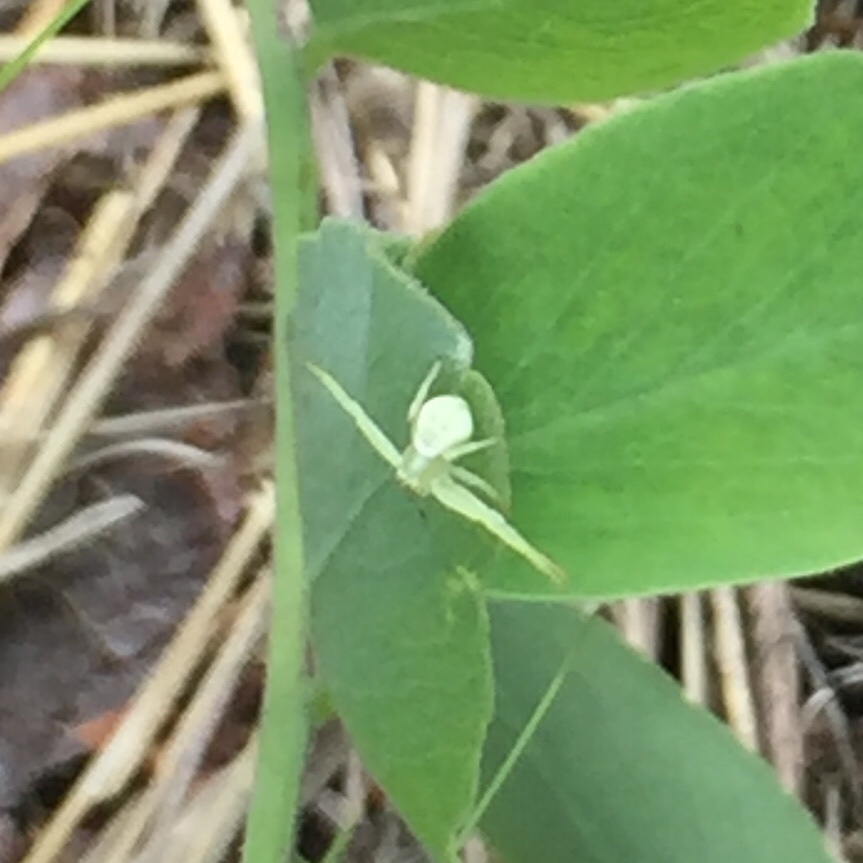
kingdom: Animalia
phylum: Arthropoda
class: Arachnida
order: Araneae
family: Thomisidae
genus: Misumena
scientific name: Misumena vatia
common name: Goldenrod crab spider
